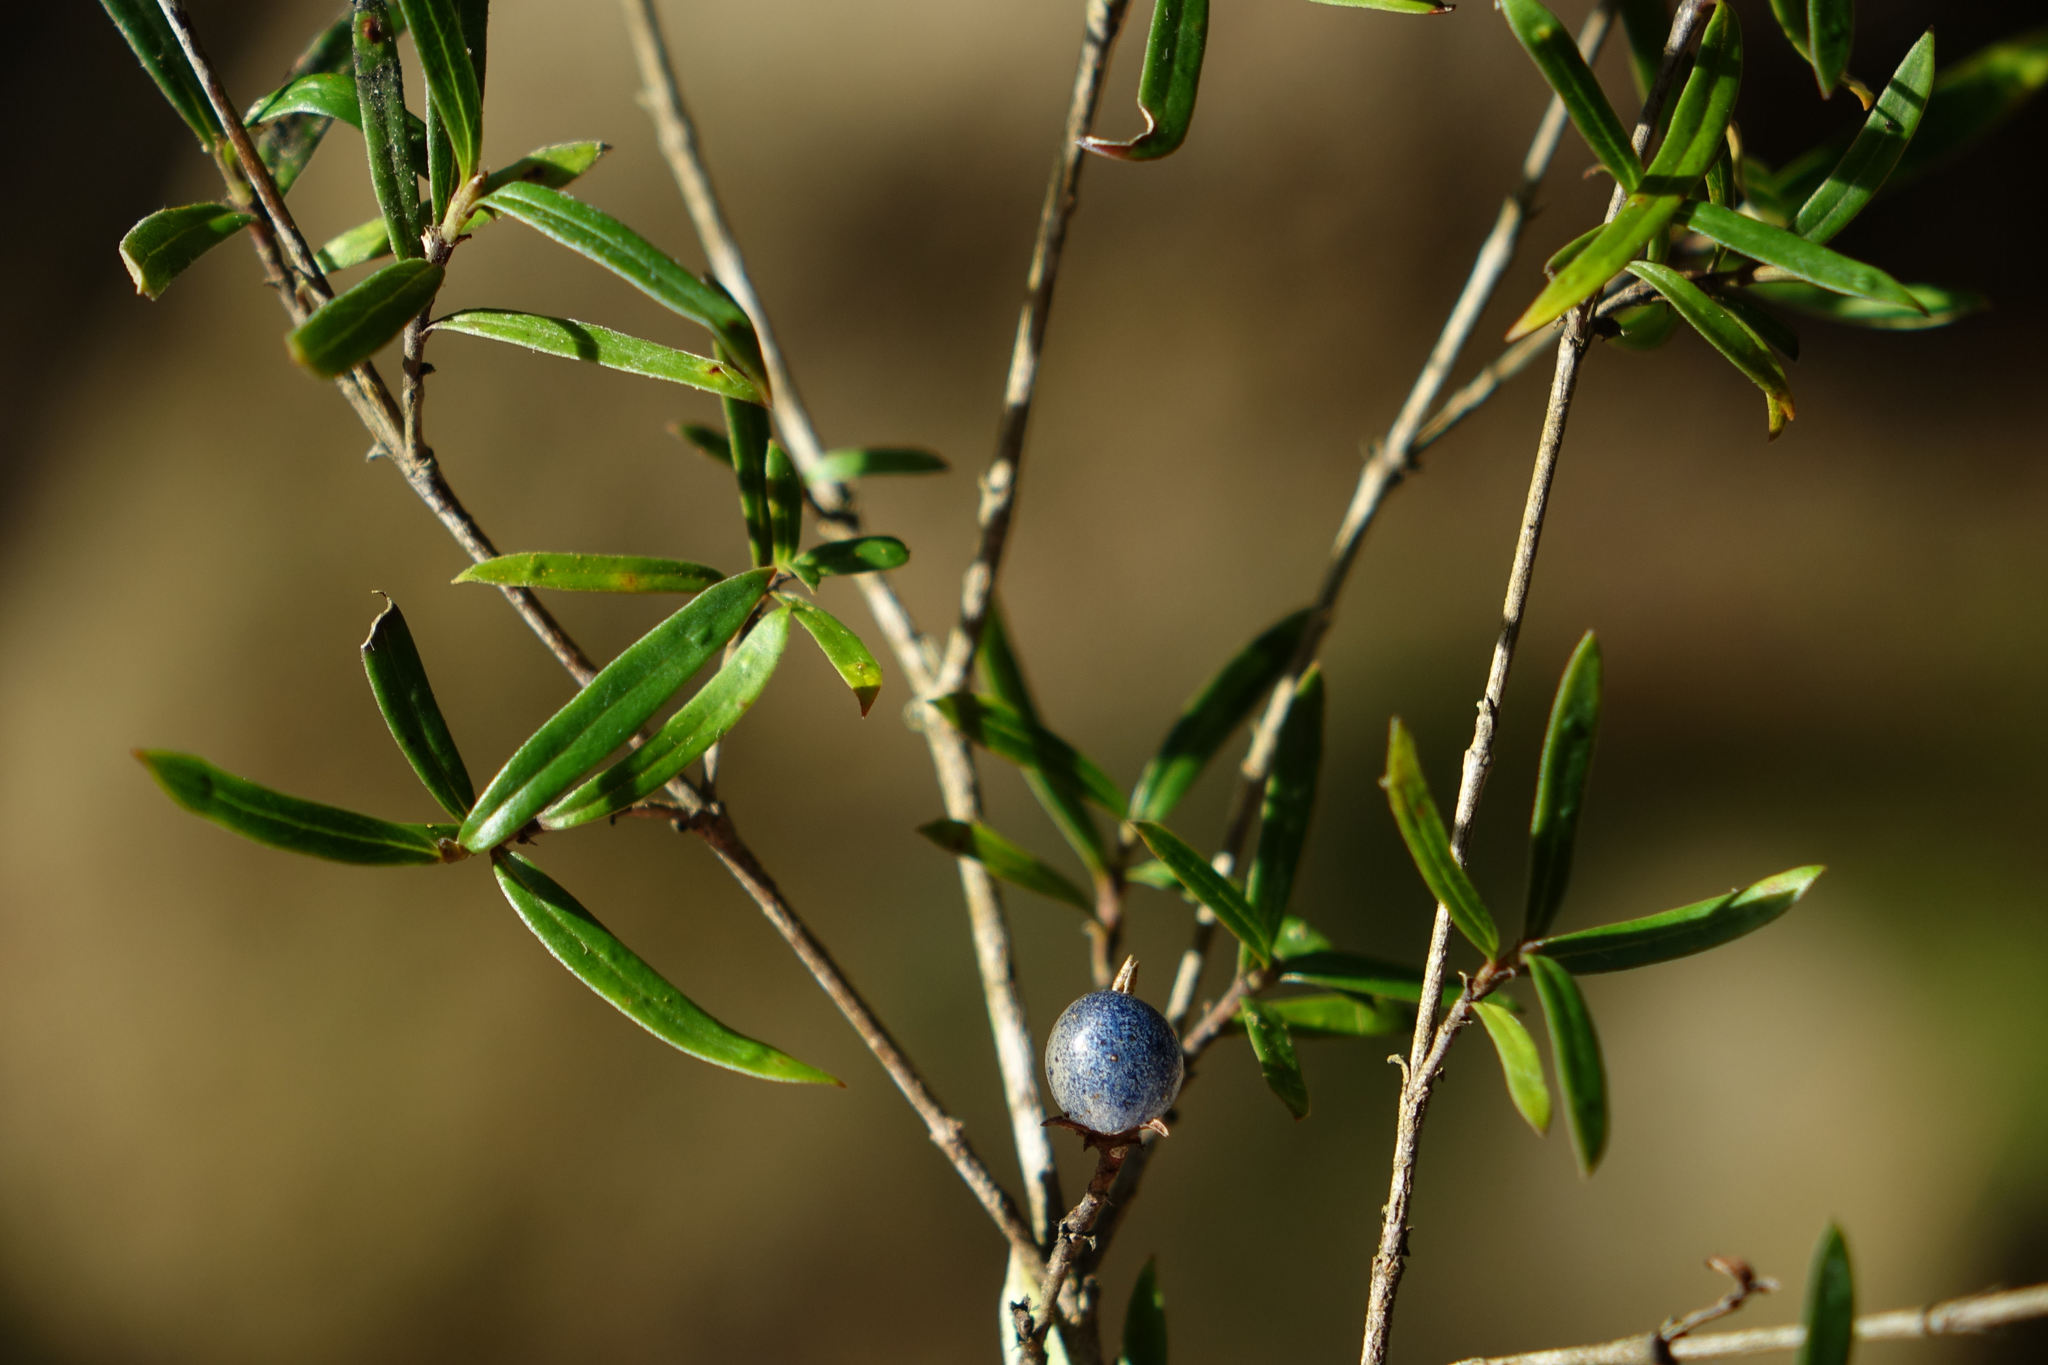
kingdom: Plantae
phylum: Tracheophyta
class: Magnoliopsida
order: Gentianales
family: Rubiaceae
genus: Coprosma
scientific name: Coprosma linariifolia
